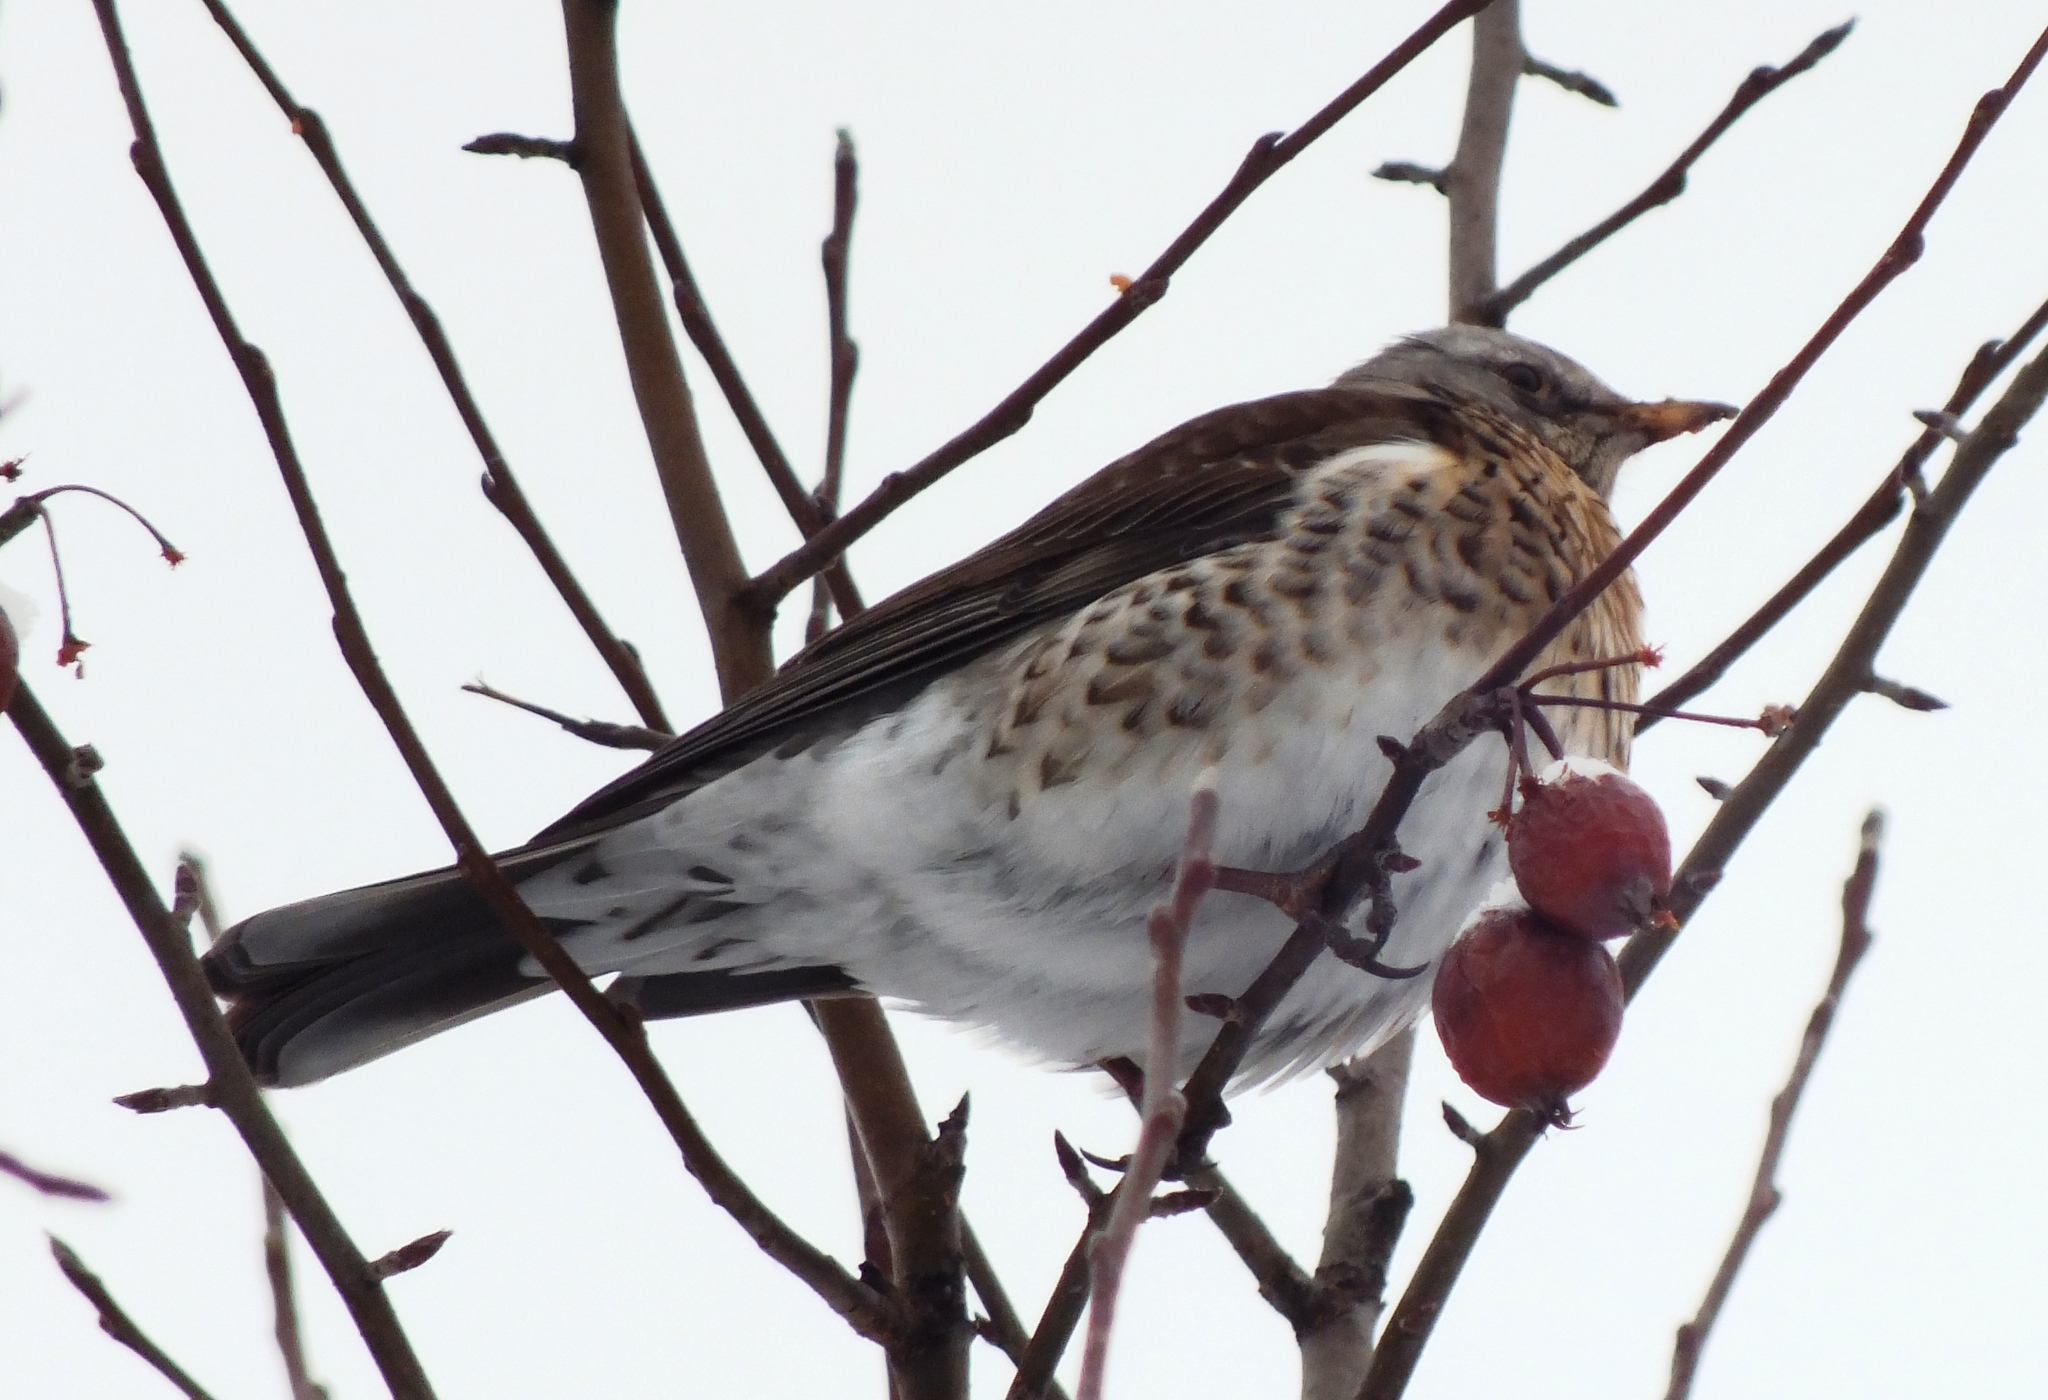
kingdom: Animalia
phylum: Chordata
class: Aves
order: Passeriformes
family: Turdidae
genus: Turdus
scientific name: Turdus pilaris
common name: Fieldfare
